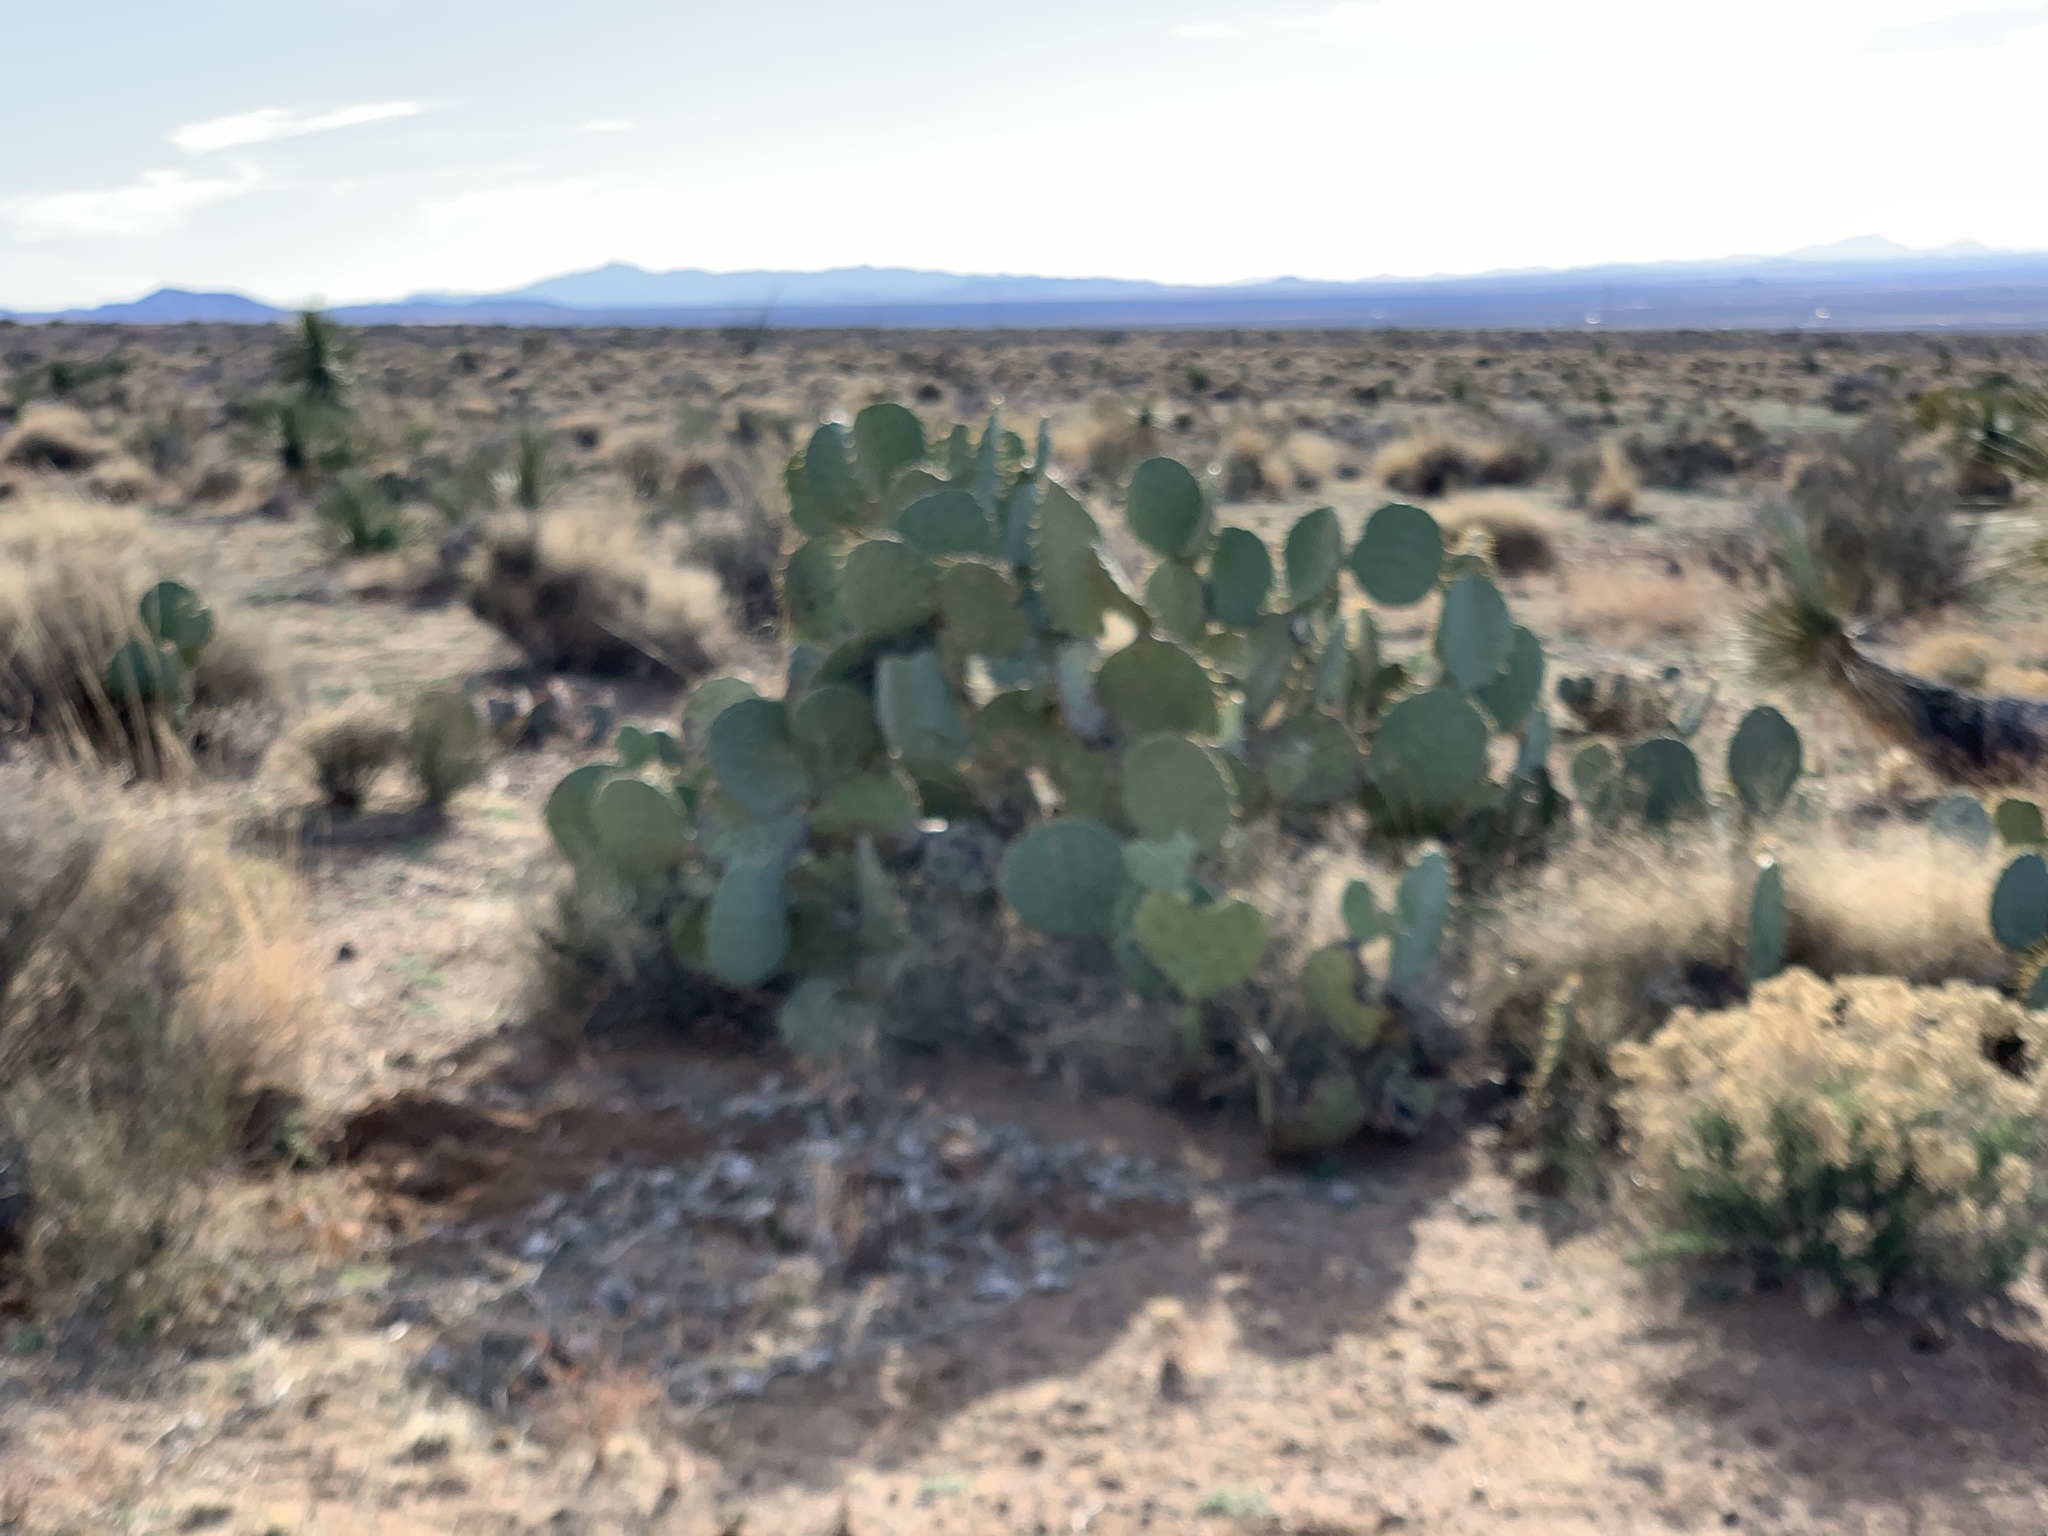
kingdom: Plantae
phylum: Tracheophyta
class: Magnoliopsida
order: Caryophyllales
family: Cactaceae
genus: Opuntia
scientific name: Opuntia engelmannii
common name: Cactus-apple
